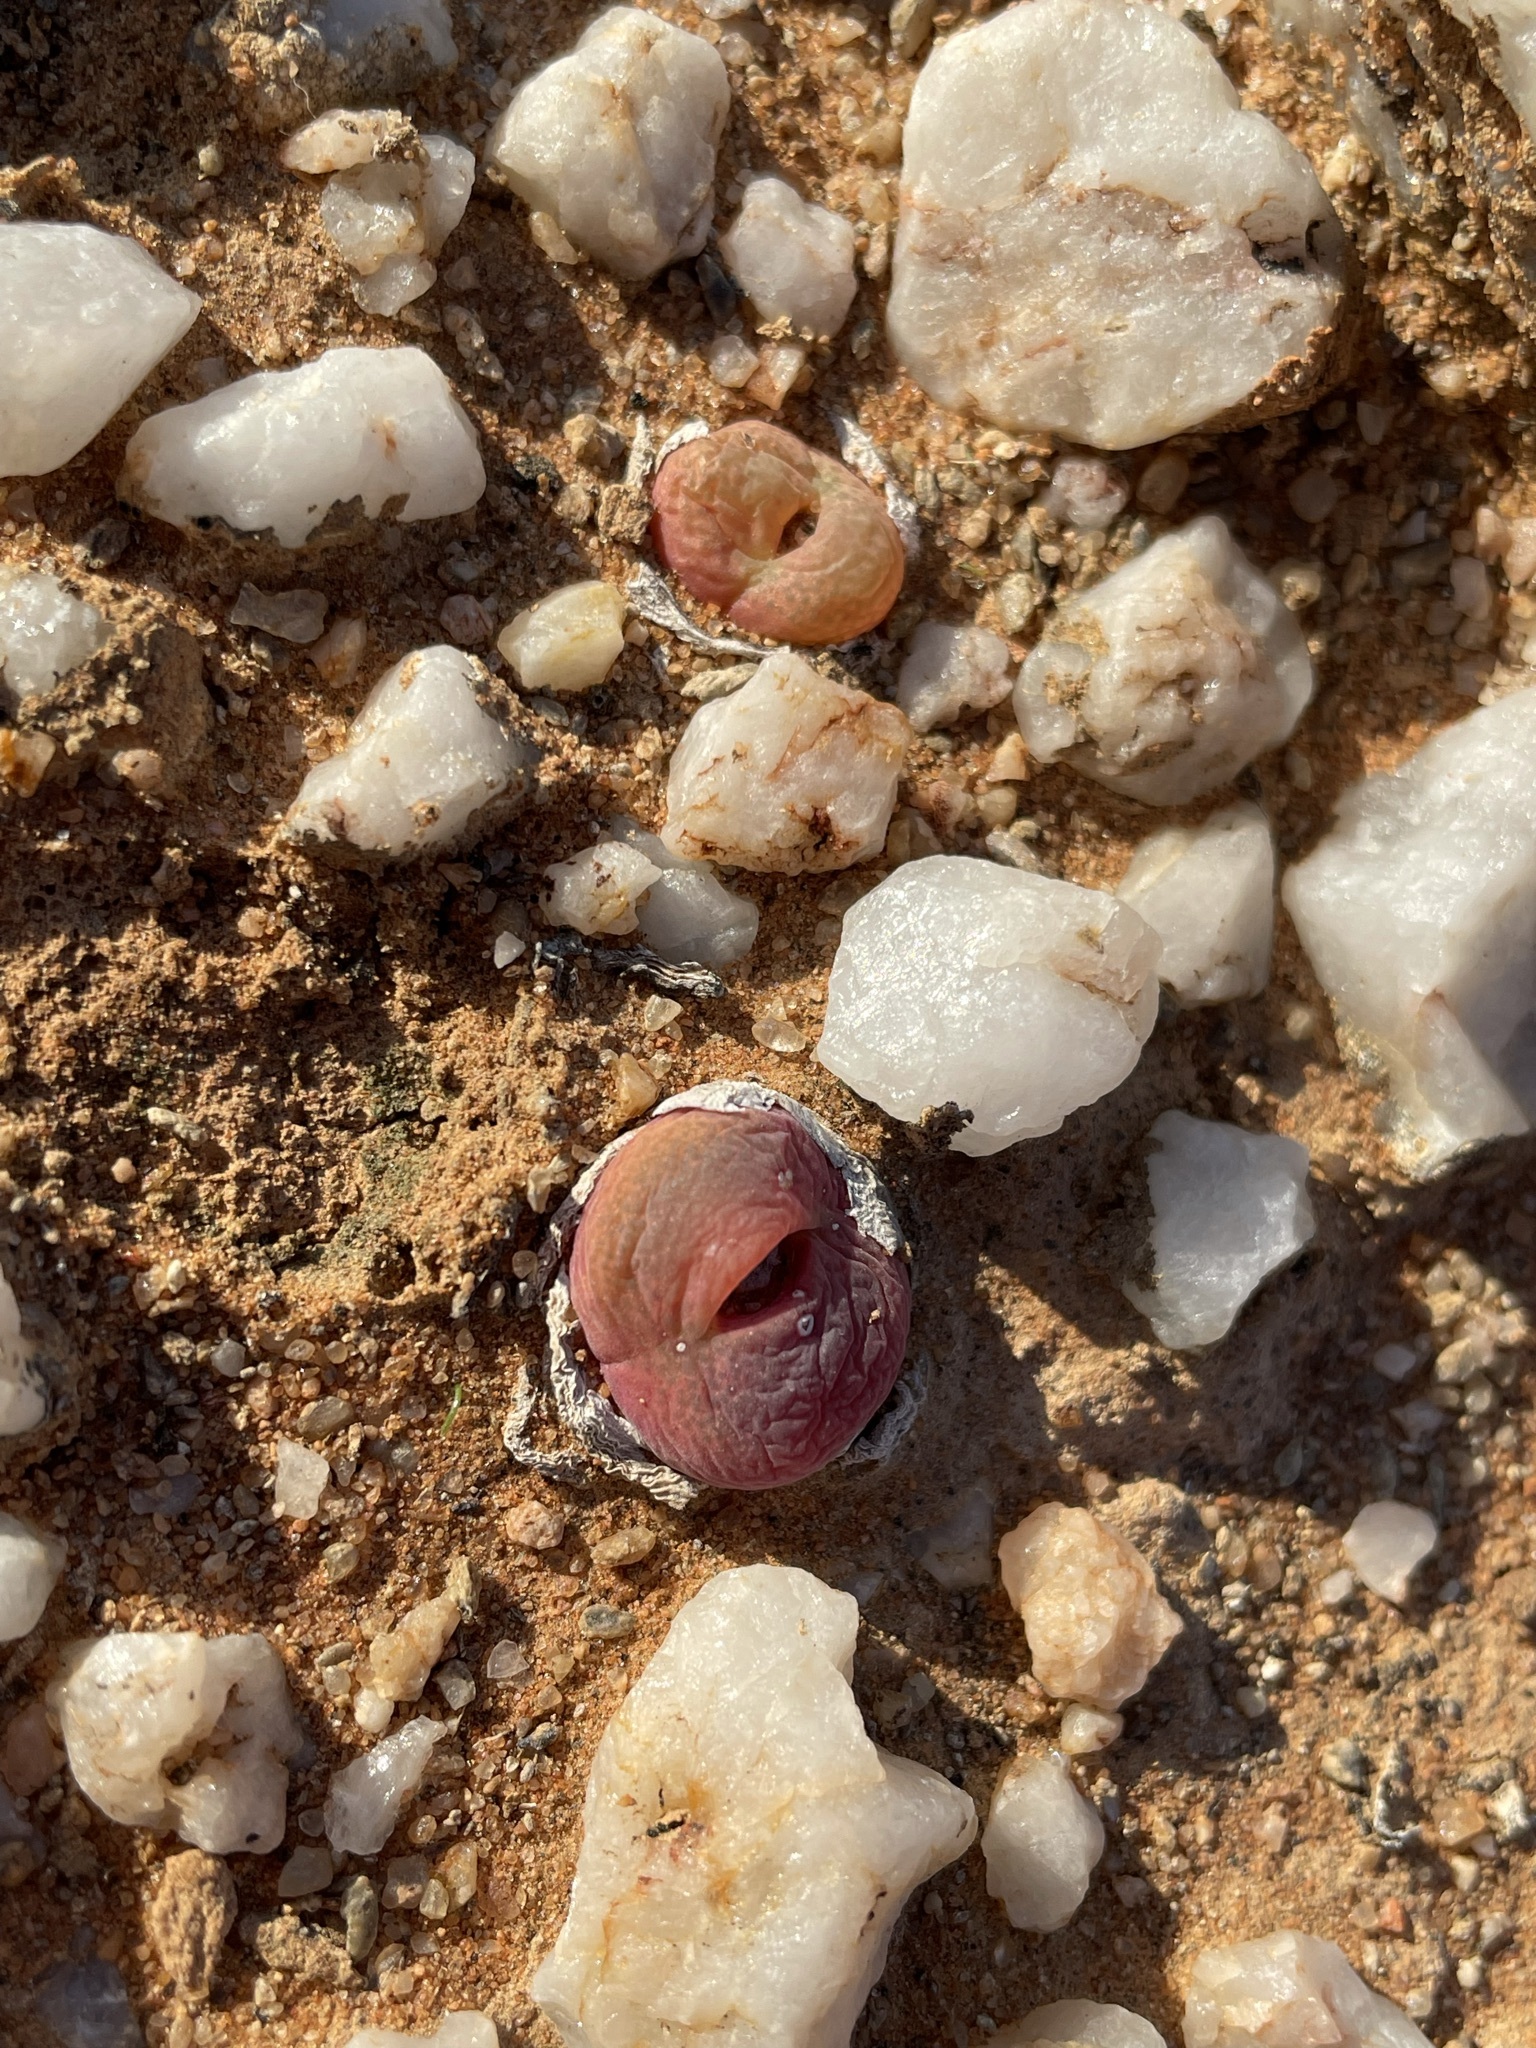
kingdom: Plantae
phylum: Tracheophyta
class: Magnoliopsida
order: Caryophyllales
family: Aizoaceae
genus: Conophytum
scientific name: Conophytum subfenestratum
